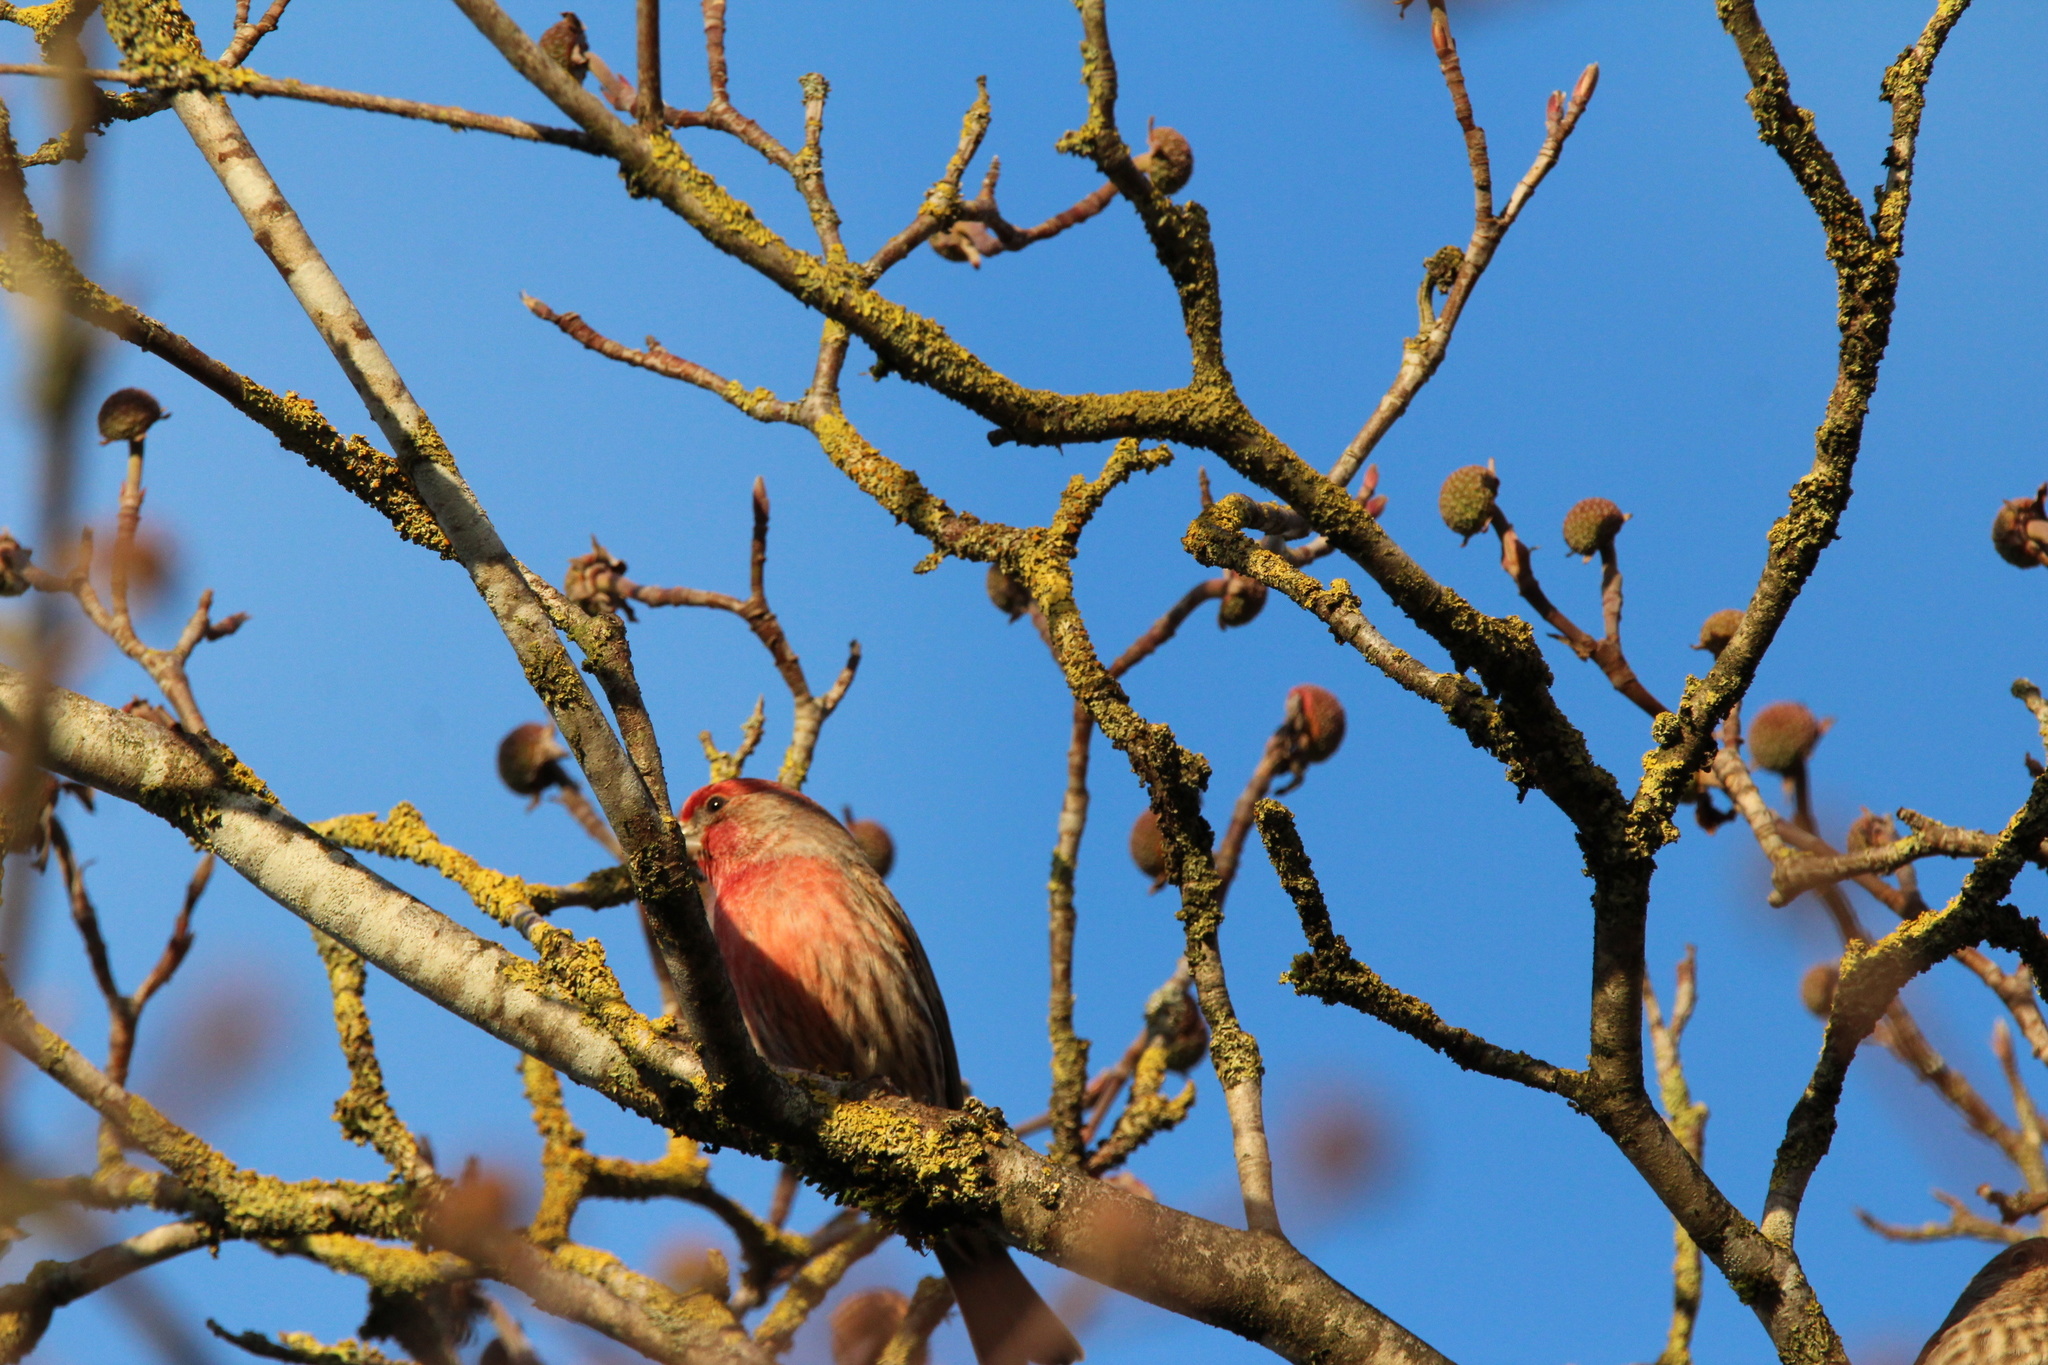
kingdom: Animalia
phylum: Chordata
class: Aves
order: Passeriformes
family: Fringillidae
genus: Haemorhous
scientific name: Haemorhous mexicanus
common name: House finch
